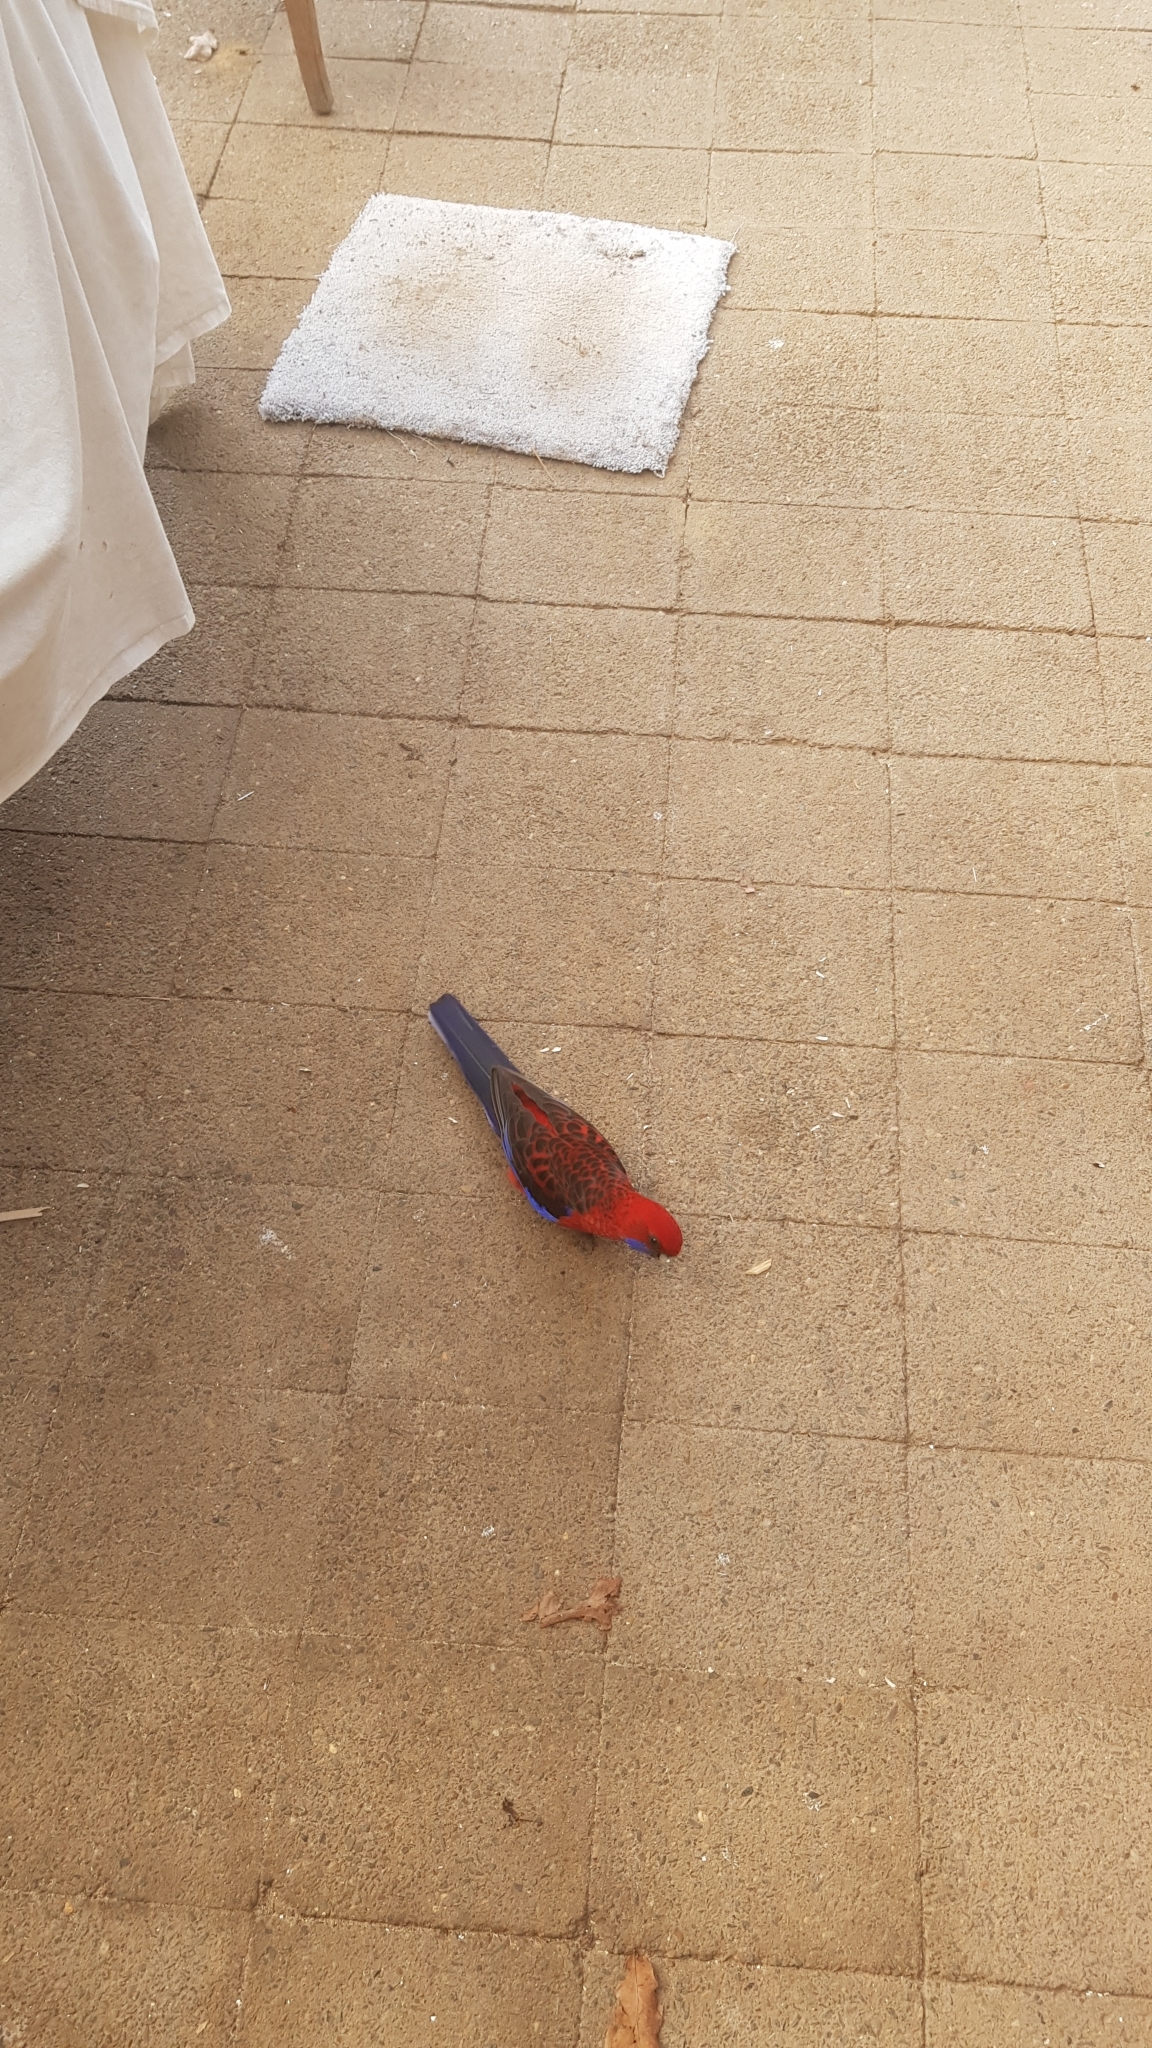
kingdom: Animalia
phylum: Chordata
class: Aves
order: Psittaciformes
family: Psittacidae
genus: Platycercus
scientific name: Platycercus elegans
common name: Crimson rosella
